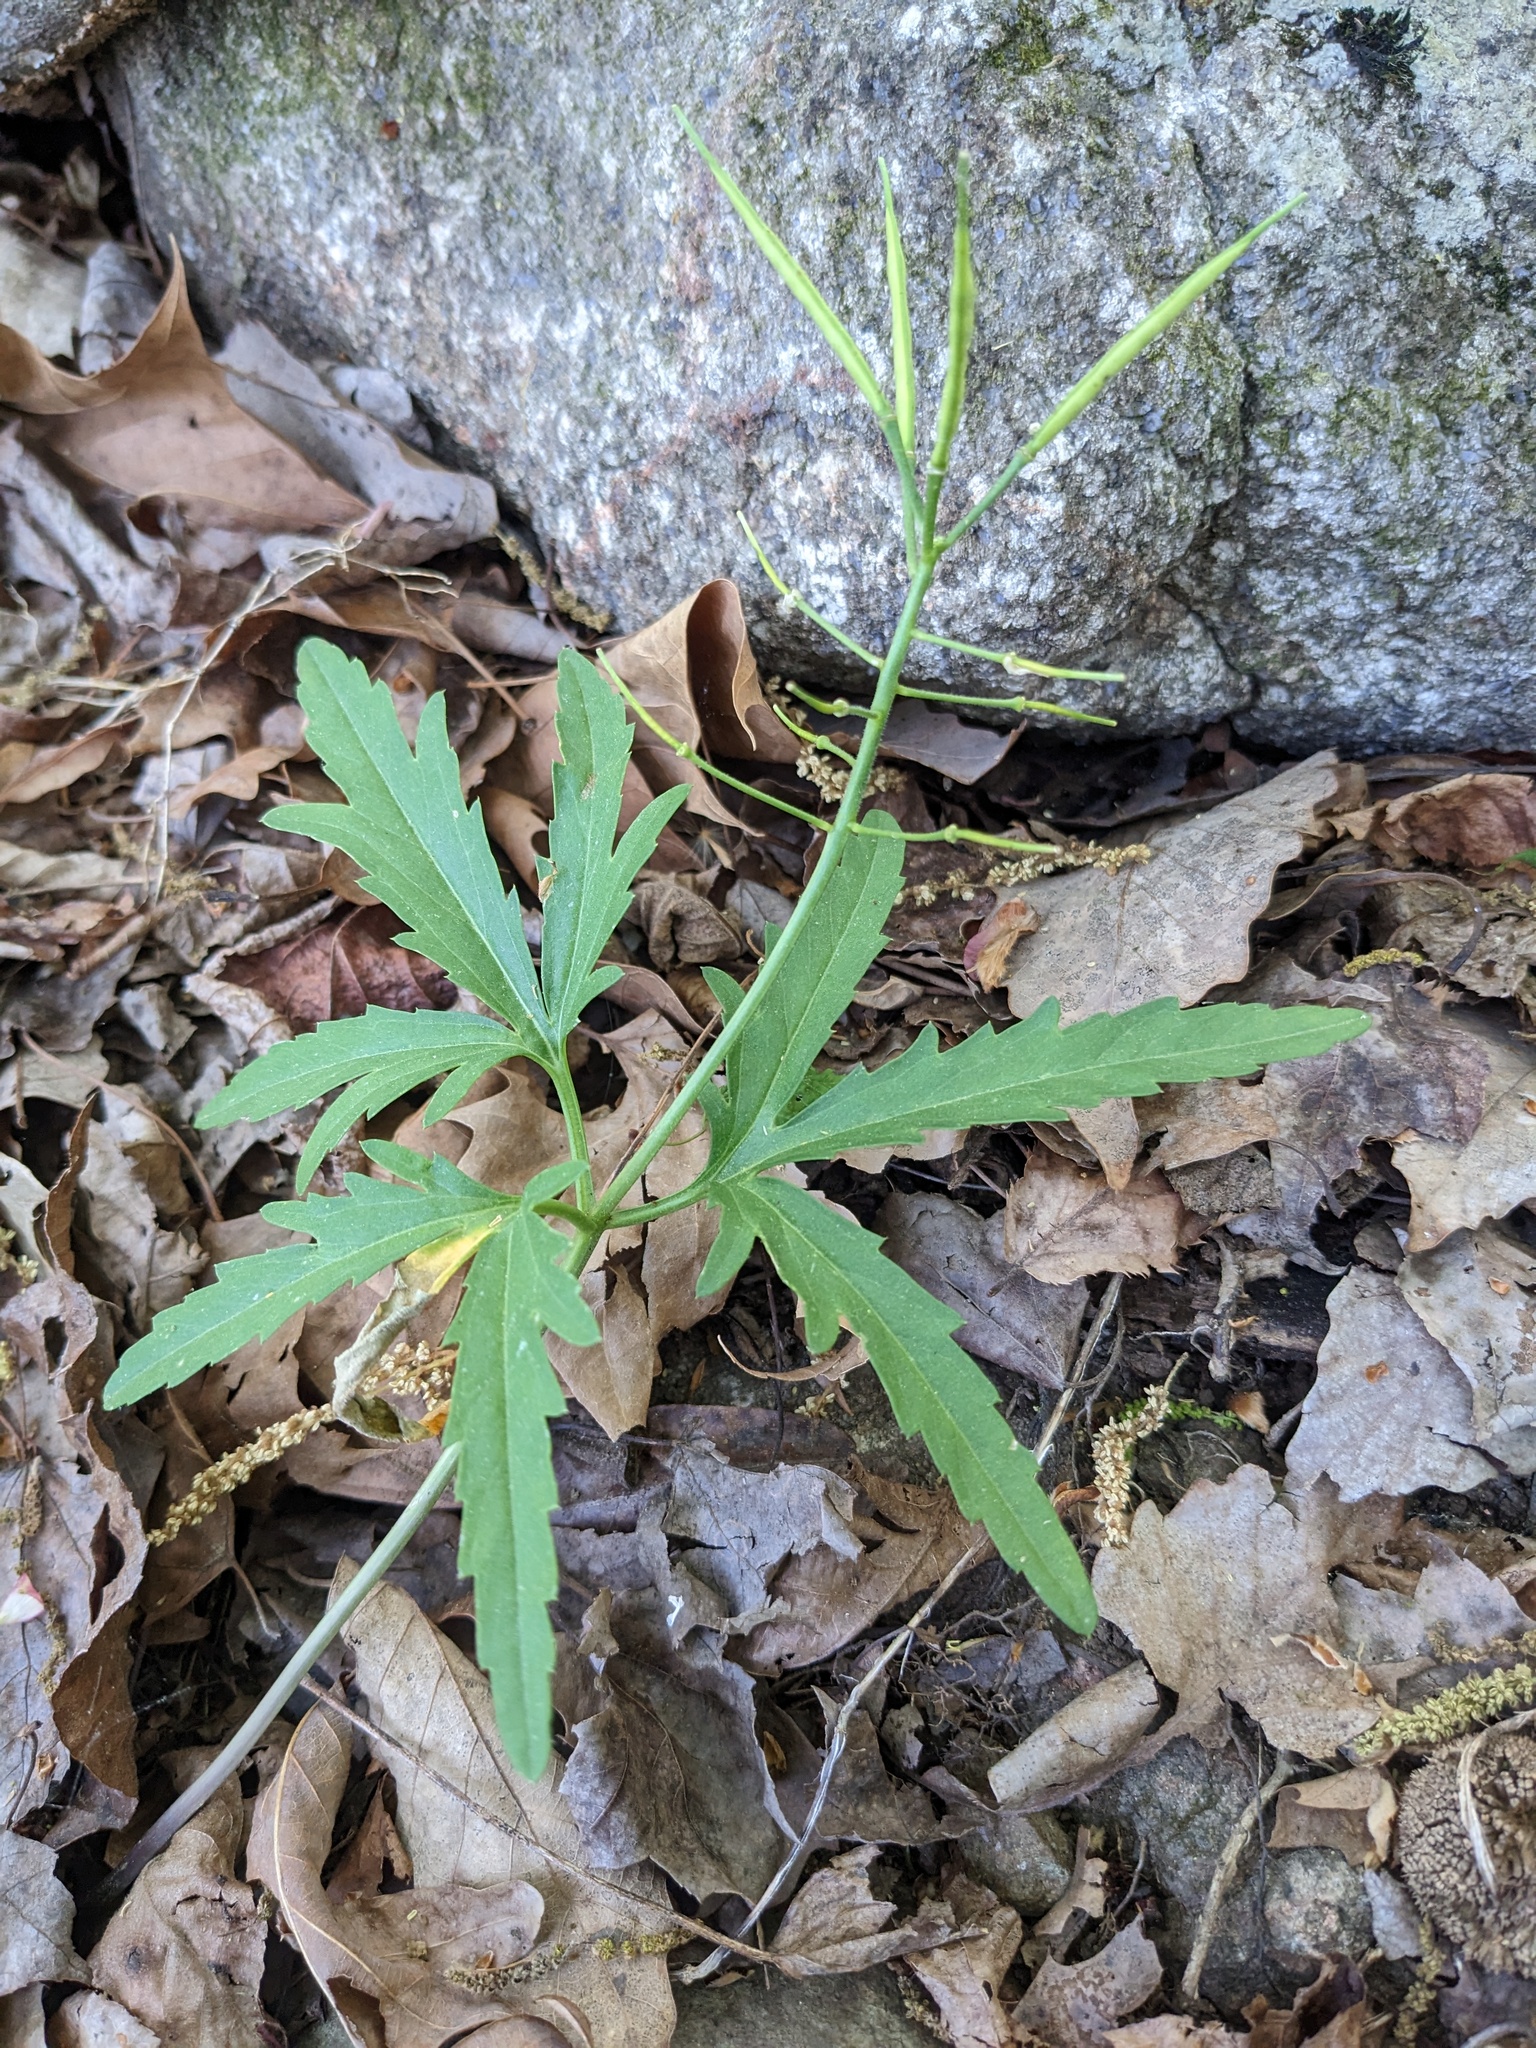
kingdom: Plantae
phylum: Tracheophyta
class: Magnoliopsida
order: Brassicales
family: Brassicaceae
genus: Cardamine
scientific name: Cardamine concatenata
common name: Cut-leaf toothcup
